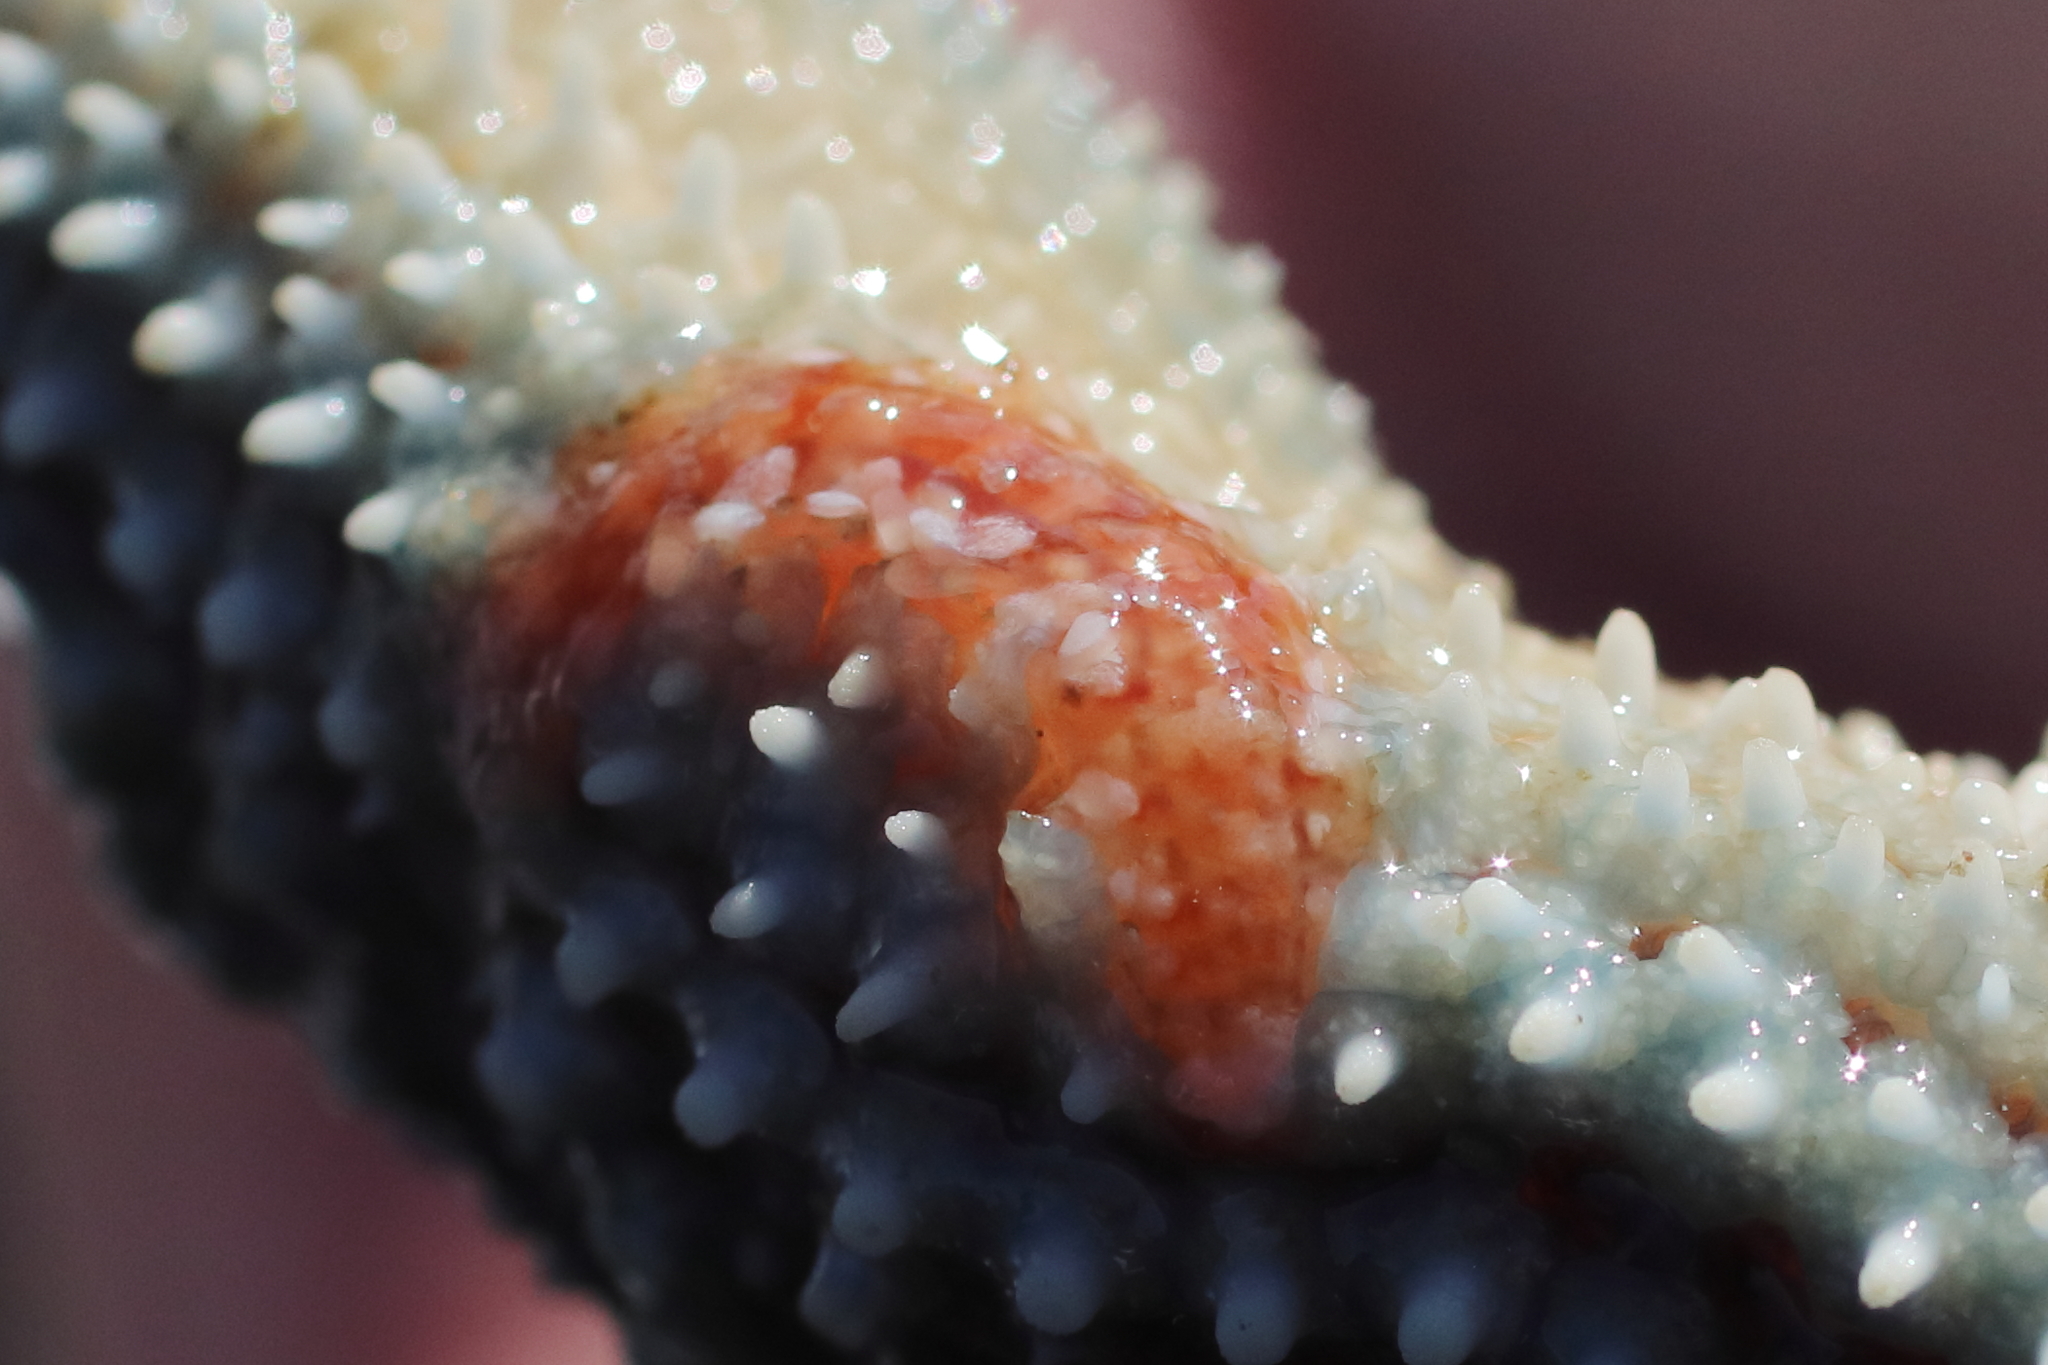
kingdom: Animalia
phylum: Annelida
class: Polychaeta
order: Phyllodocida
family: Polynoidae
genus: Arctonoe
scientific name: Arctonoe fragilis
